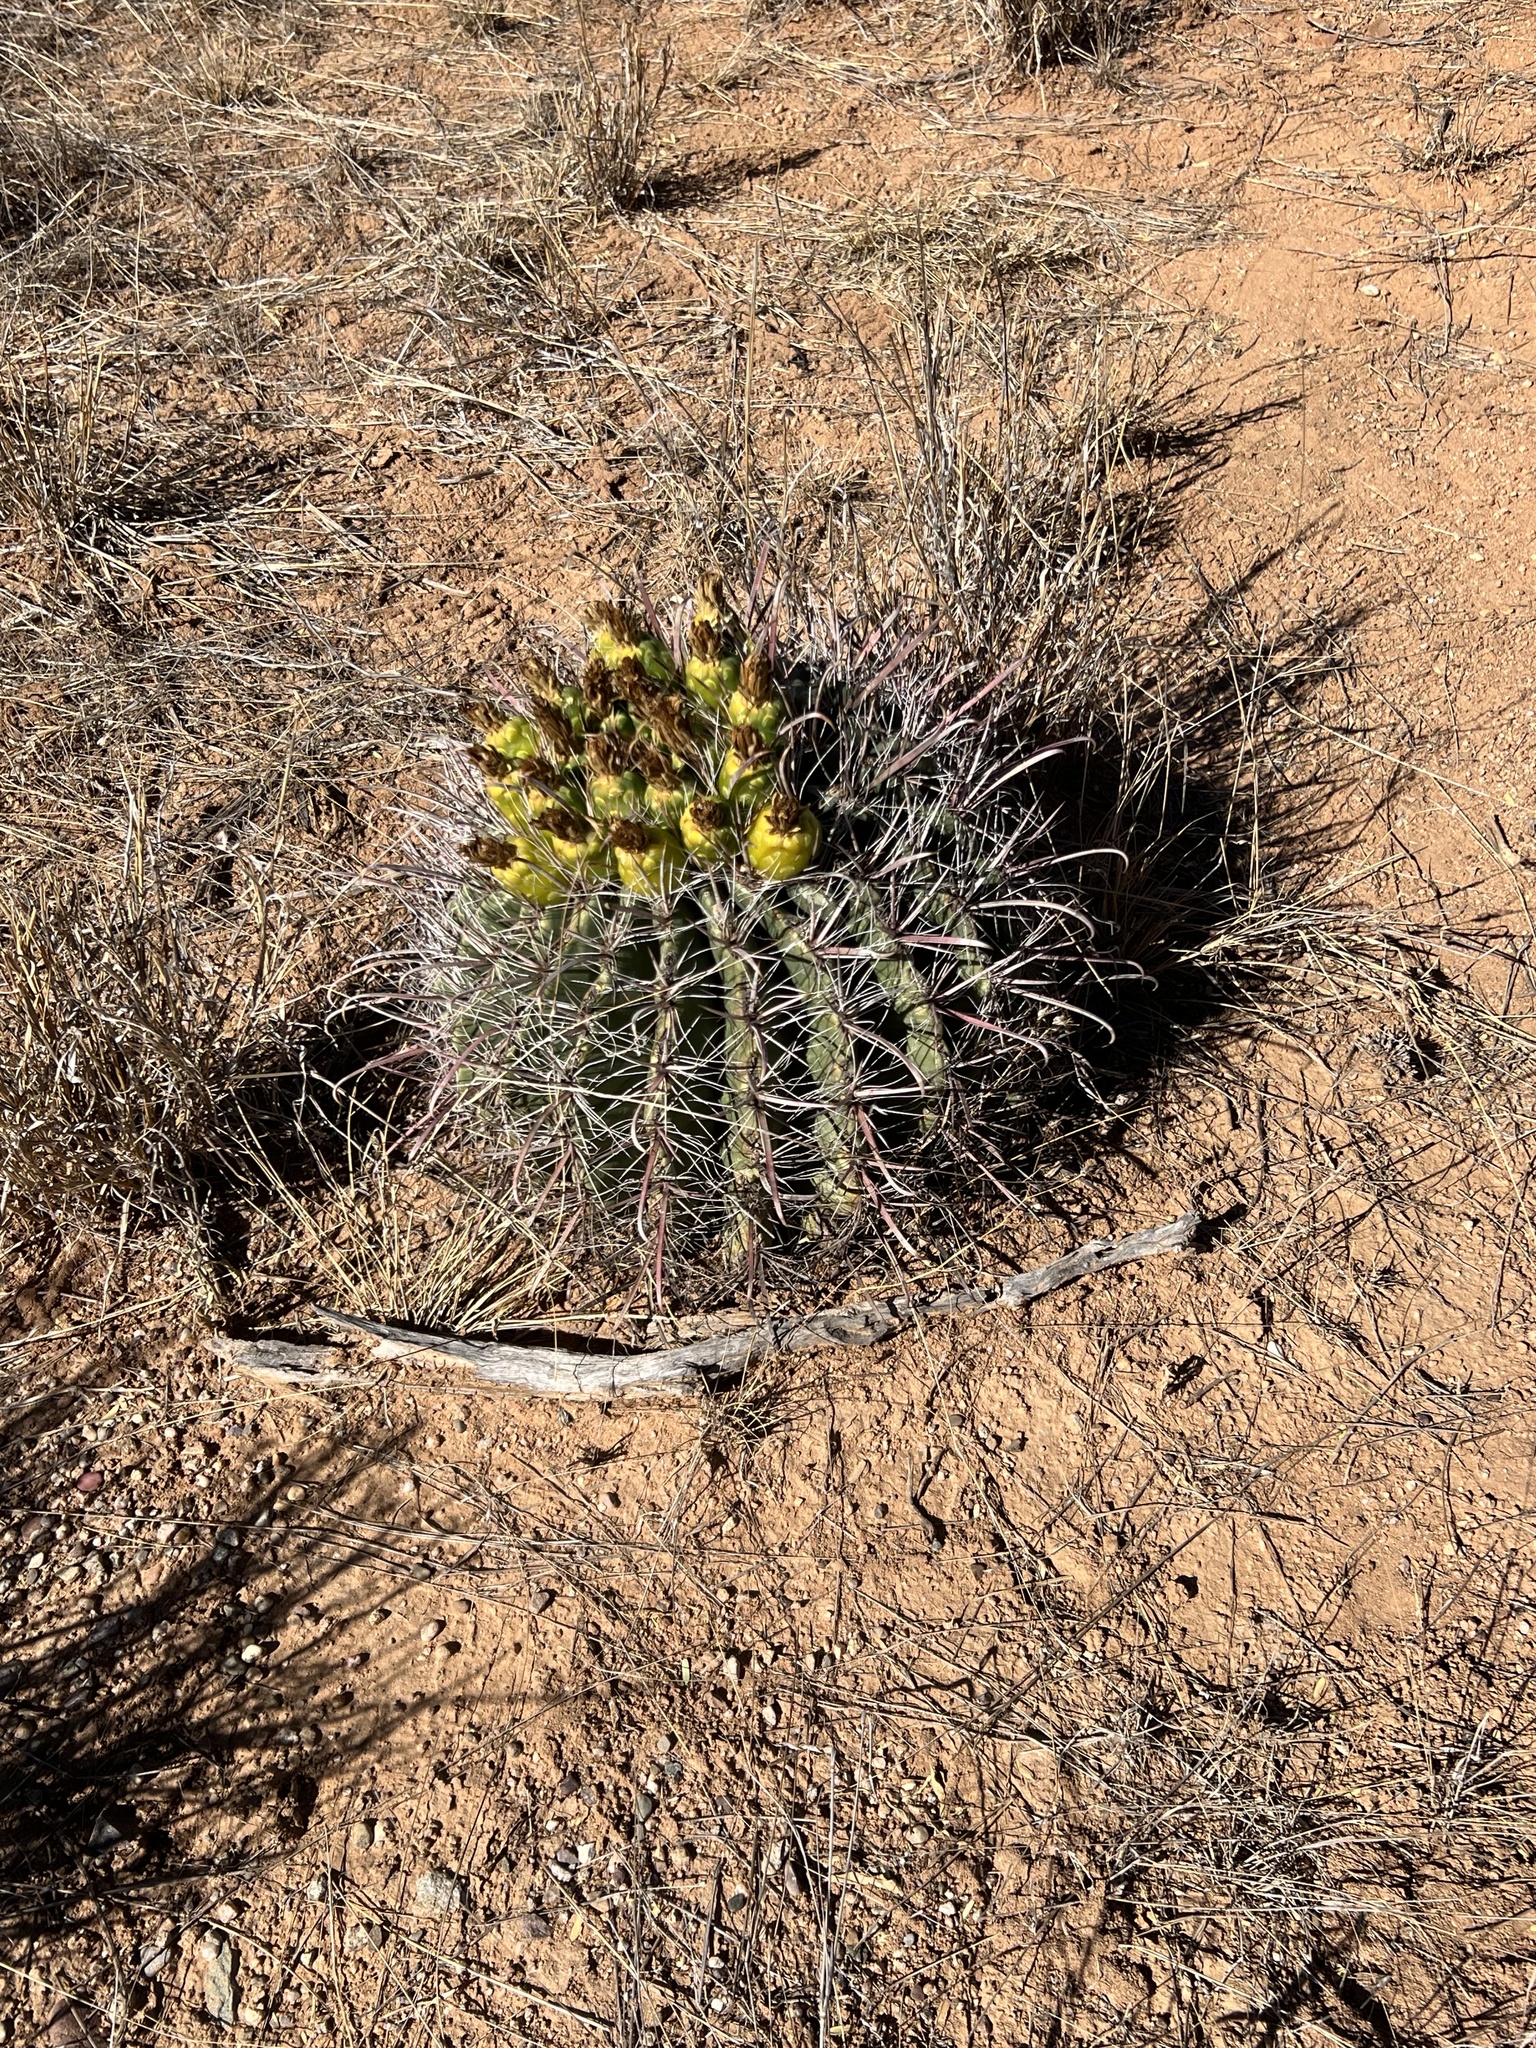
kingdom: Plantae
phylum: Tracheophyta
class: Magnoliopsida
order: Caryophyllales
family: Cactaceae
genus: Ferocactus
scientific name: Ferocactus wislizeni
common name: Candy barrel cactus
